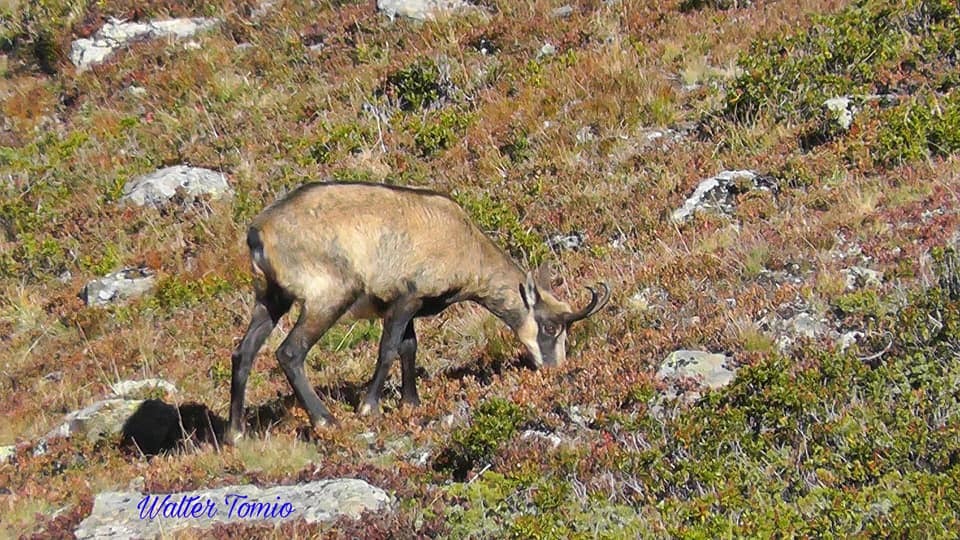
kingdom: Animalia
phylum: Chordata
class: Mammalia
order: Artiodactyla
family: Bovidae
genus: Rupicapra
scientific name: Rupicapra rupicapra
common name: Chamois
